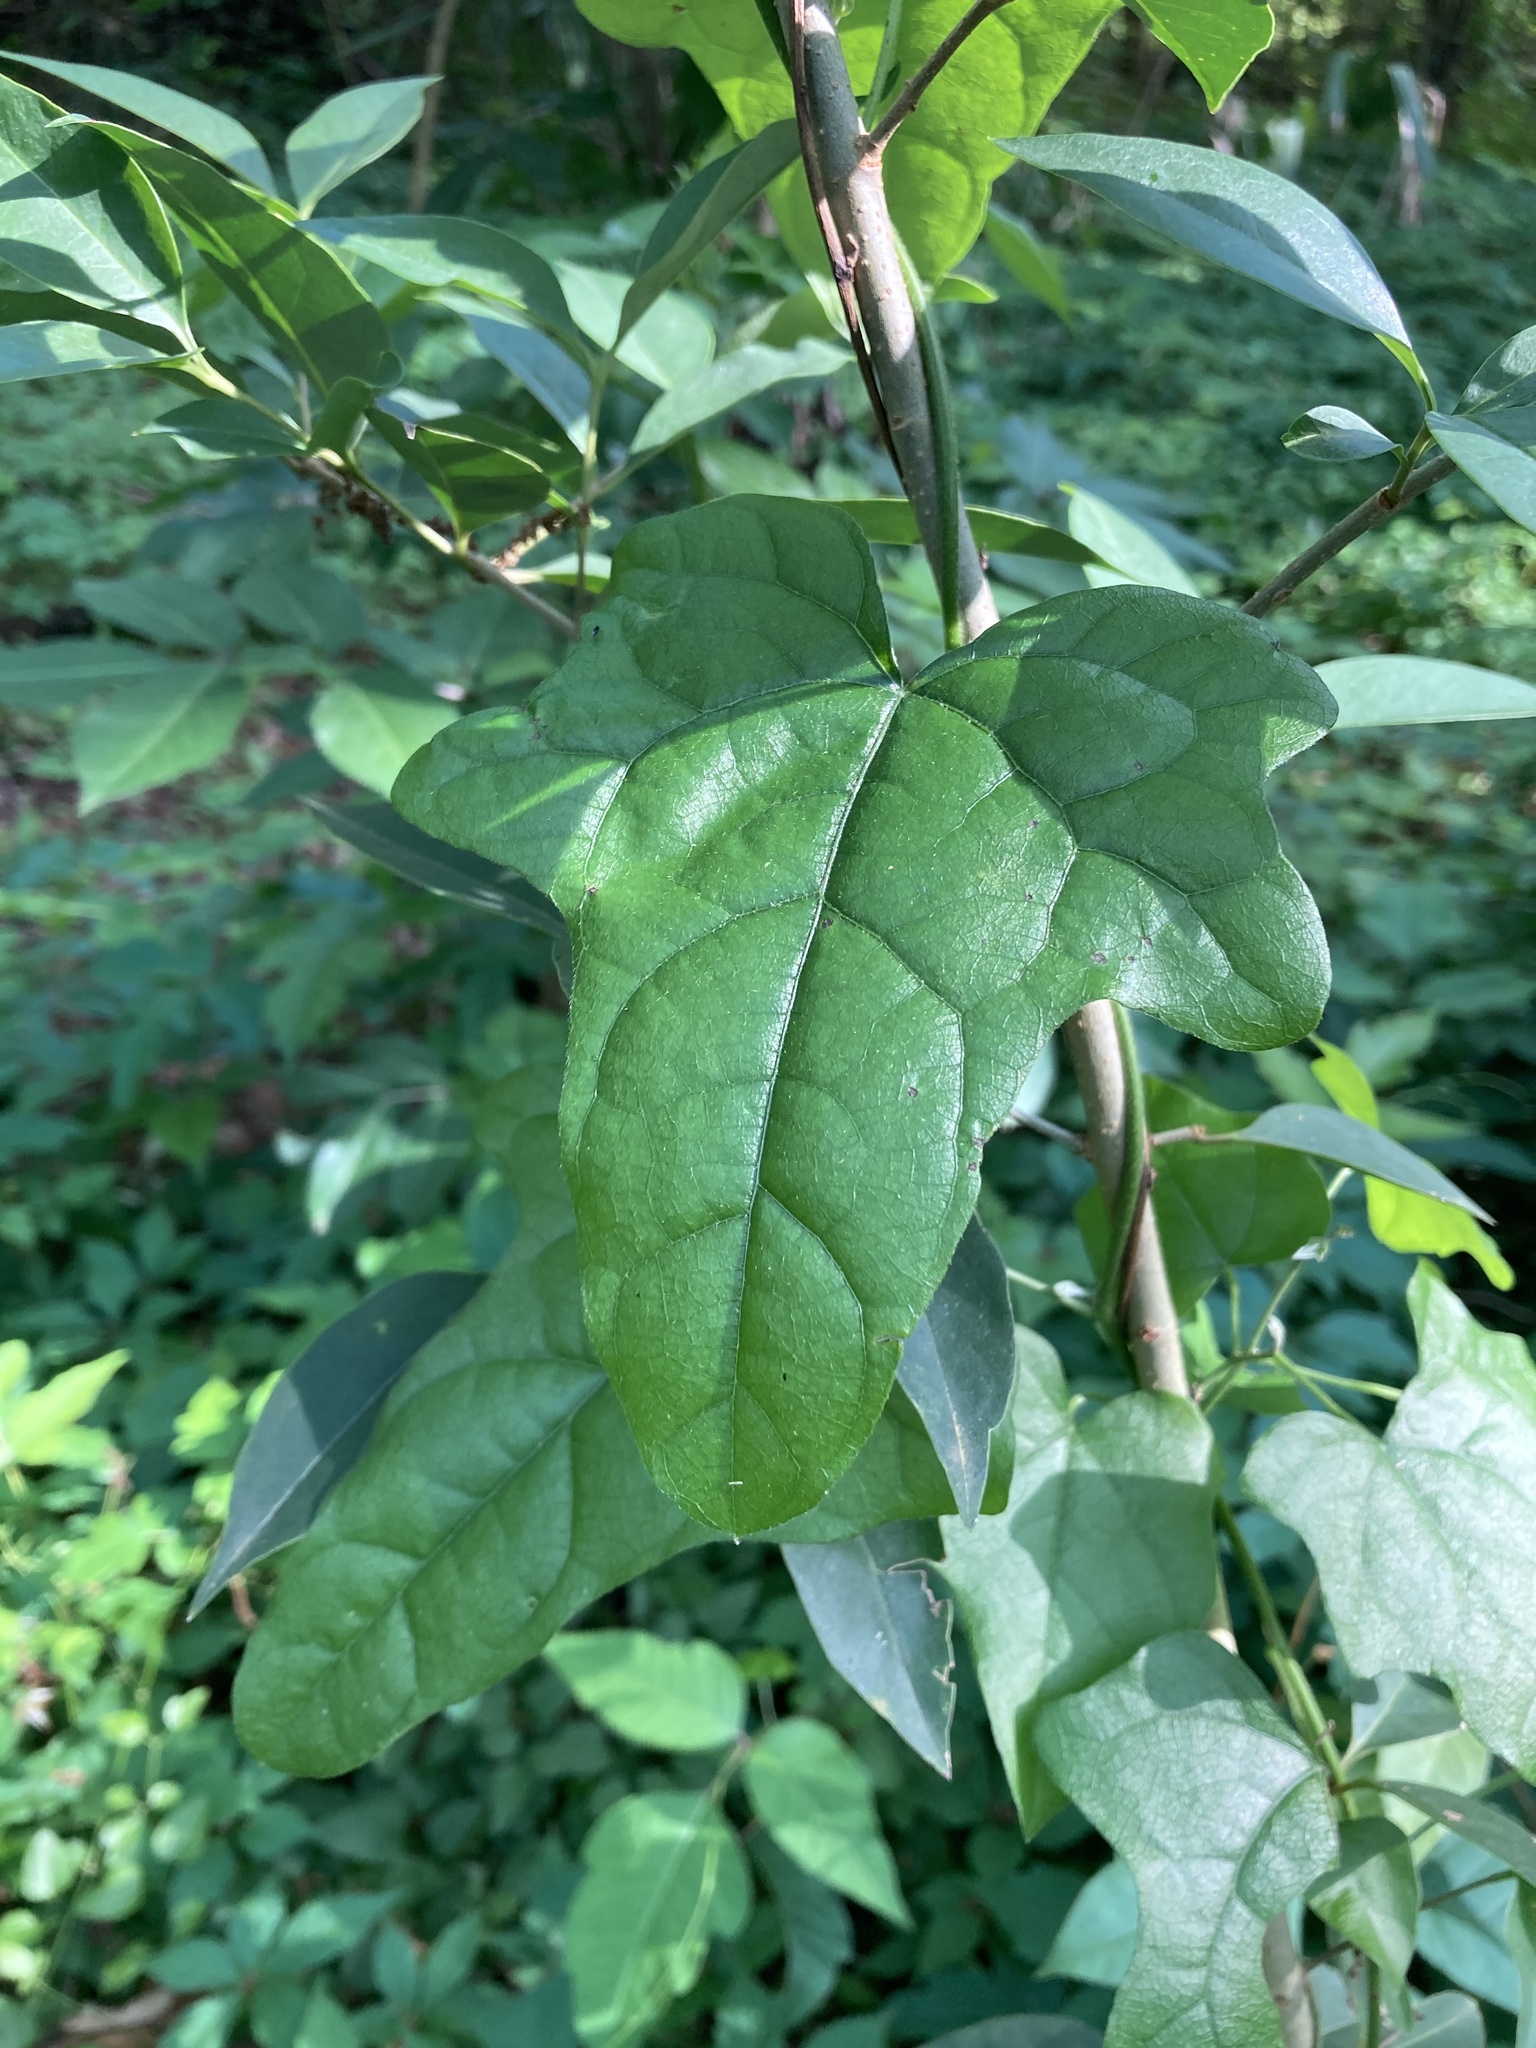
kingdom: Plantae
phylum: Tracheophyta
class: Magnoliopsida
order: Ranunculales
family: Menispermaceae
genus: Cocculus
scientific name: Cocculus carolinus
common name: Carolina moonseed
